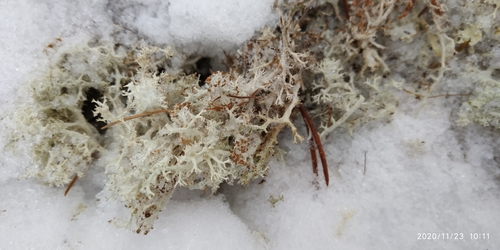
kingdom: Fungi
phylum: Ascomycota
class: Lecanoromycetes
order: Lecanorales
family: Cladoniaceae
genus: Cladonia
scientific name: Cladonia portentosa
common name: Reindeer lichen
